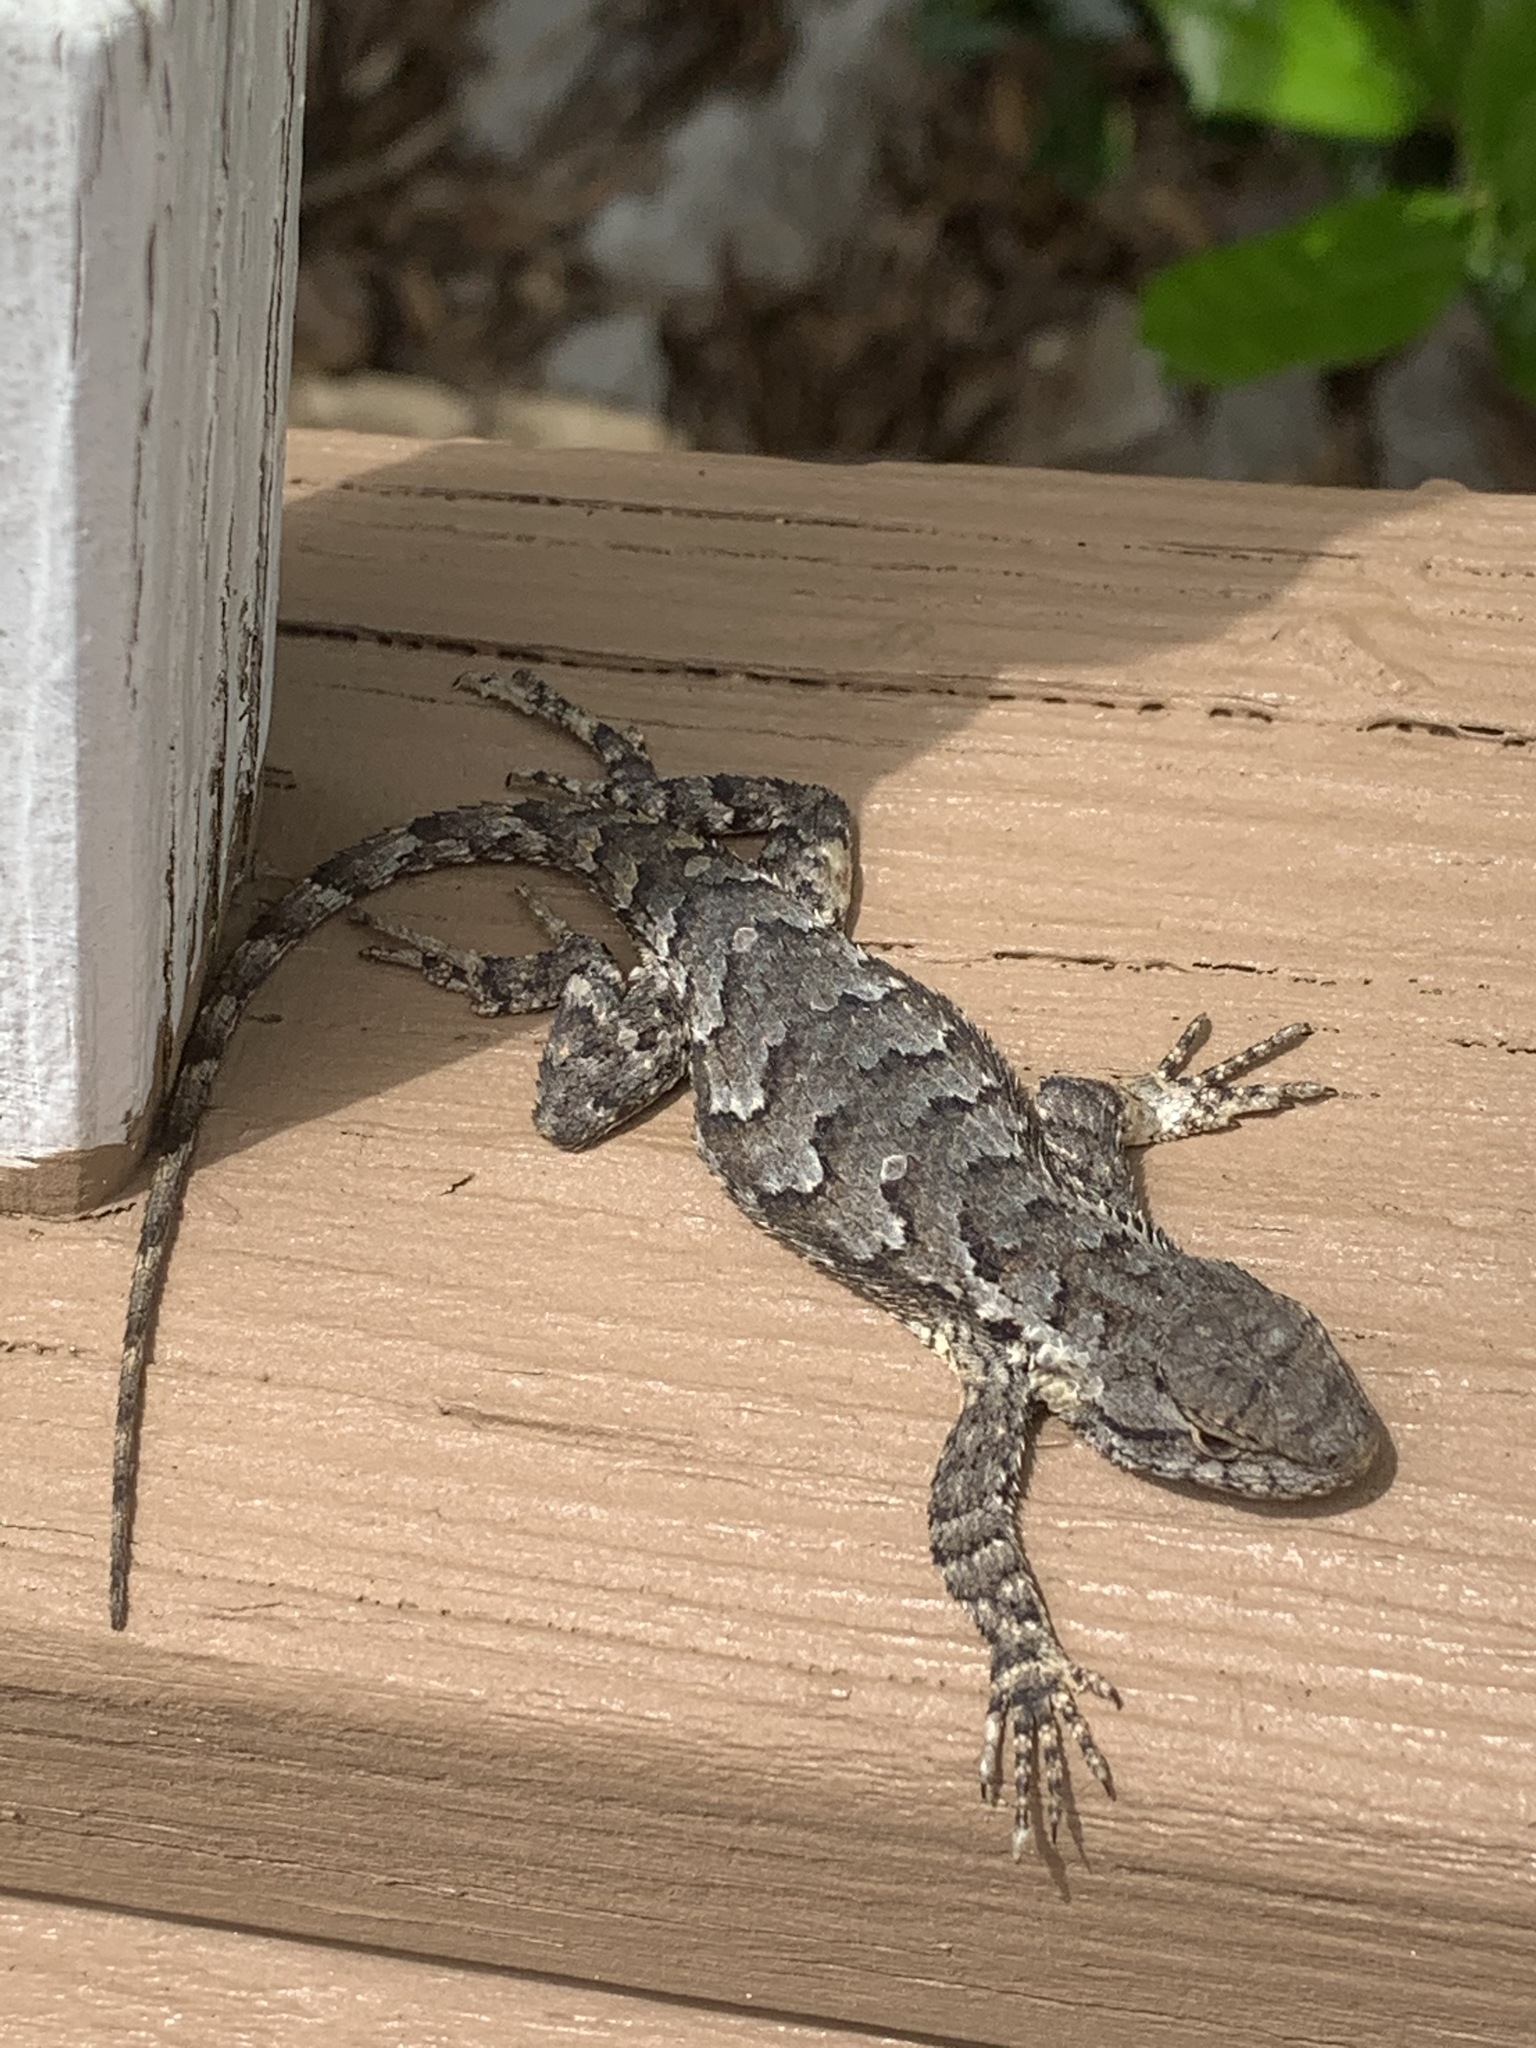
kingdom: Animalia
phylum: Chordata
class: Squamata
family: Phrynosomatidae
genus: Sceloporus
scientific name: Sceloporus undulatus
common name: Eastern fence lizard
